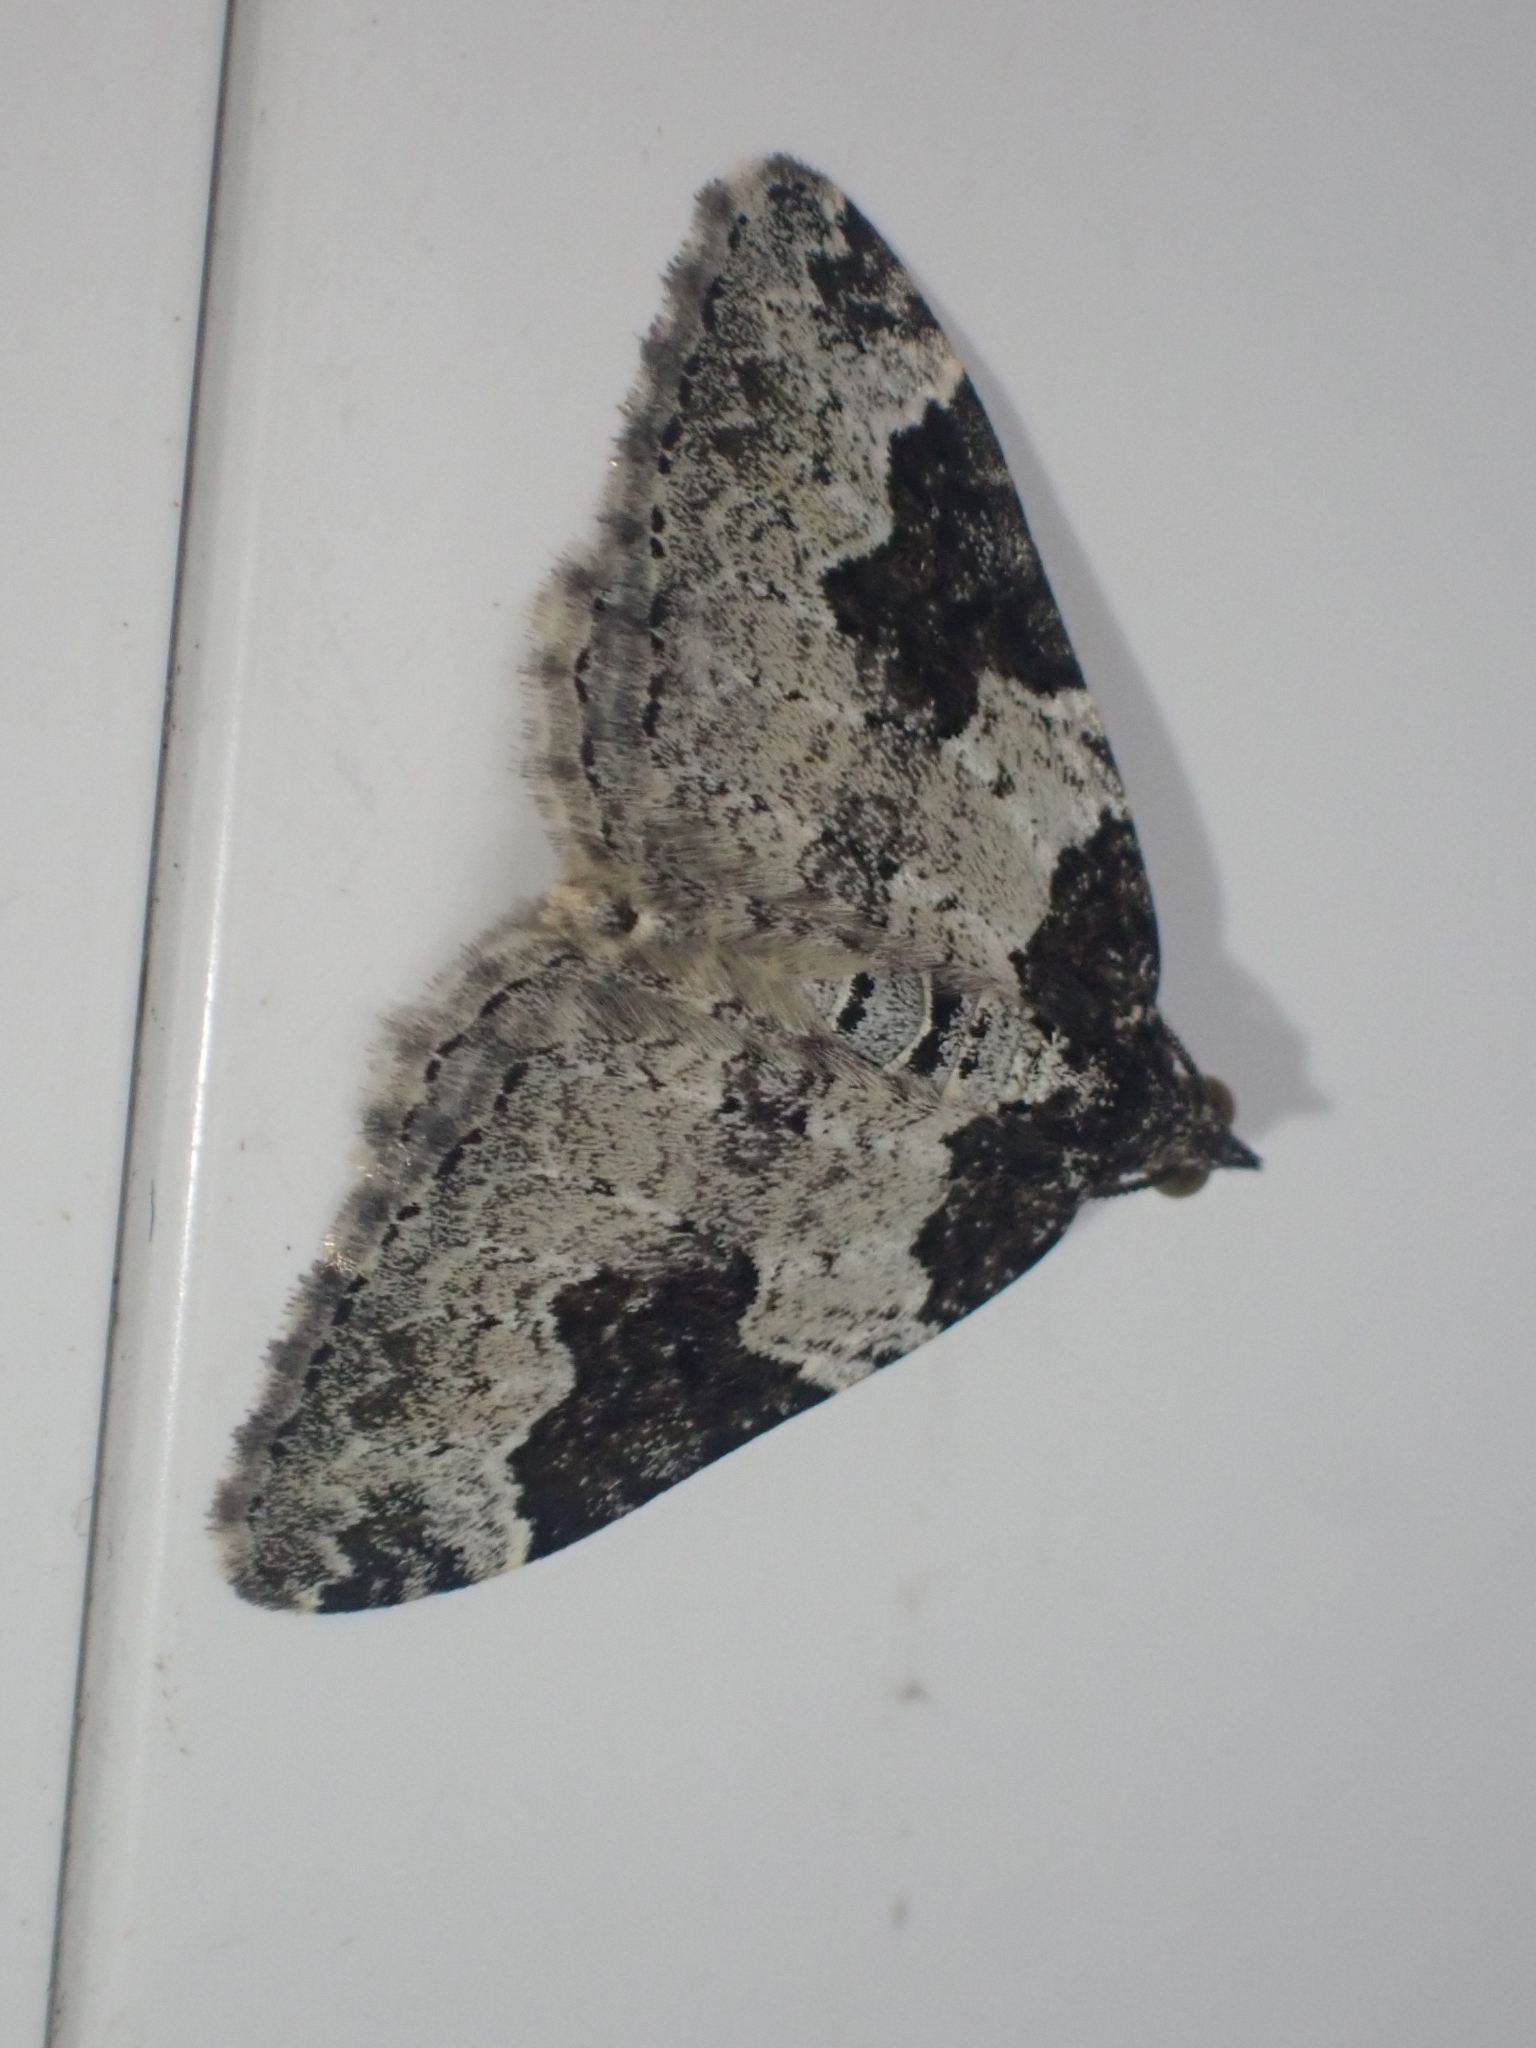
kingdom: Animalia
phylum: Arthropoda
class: Insecta
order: Lepidoptera
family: Geometridae
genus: Xanthorhoe
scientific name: Xanthorhoe fluctuata
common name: Garden carpet
